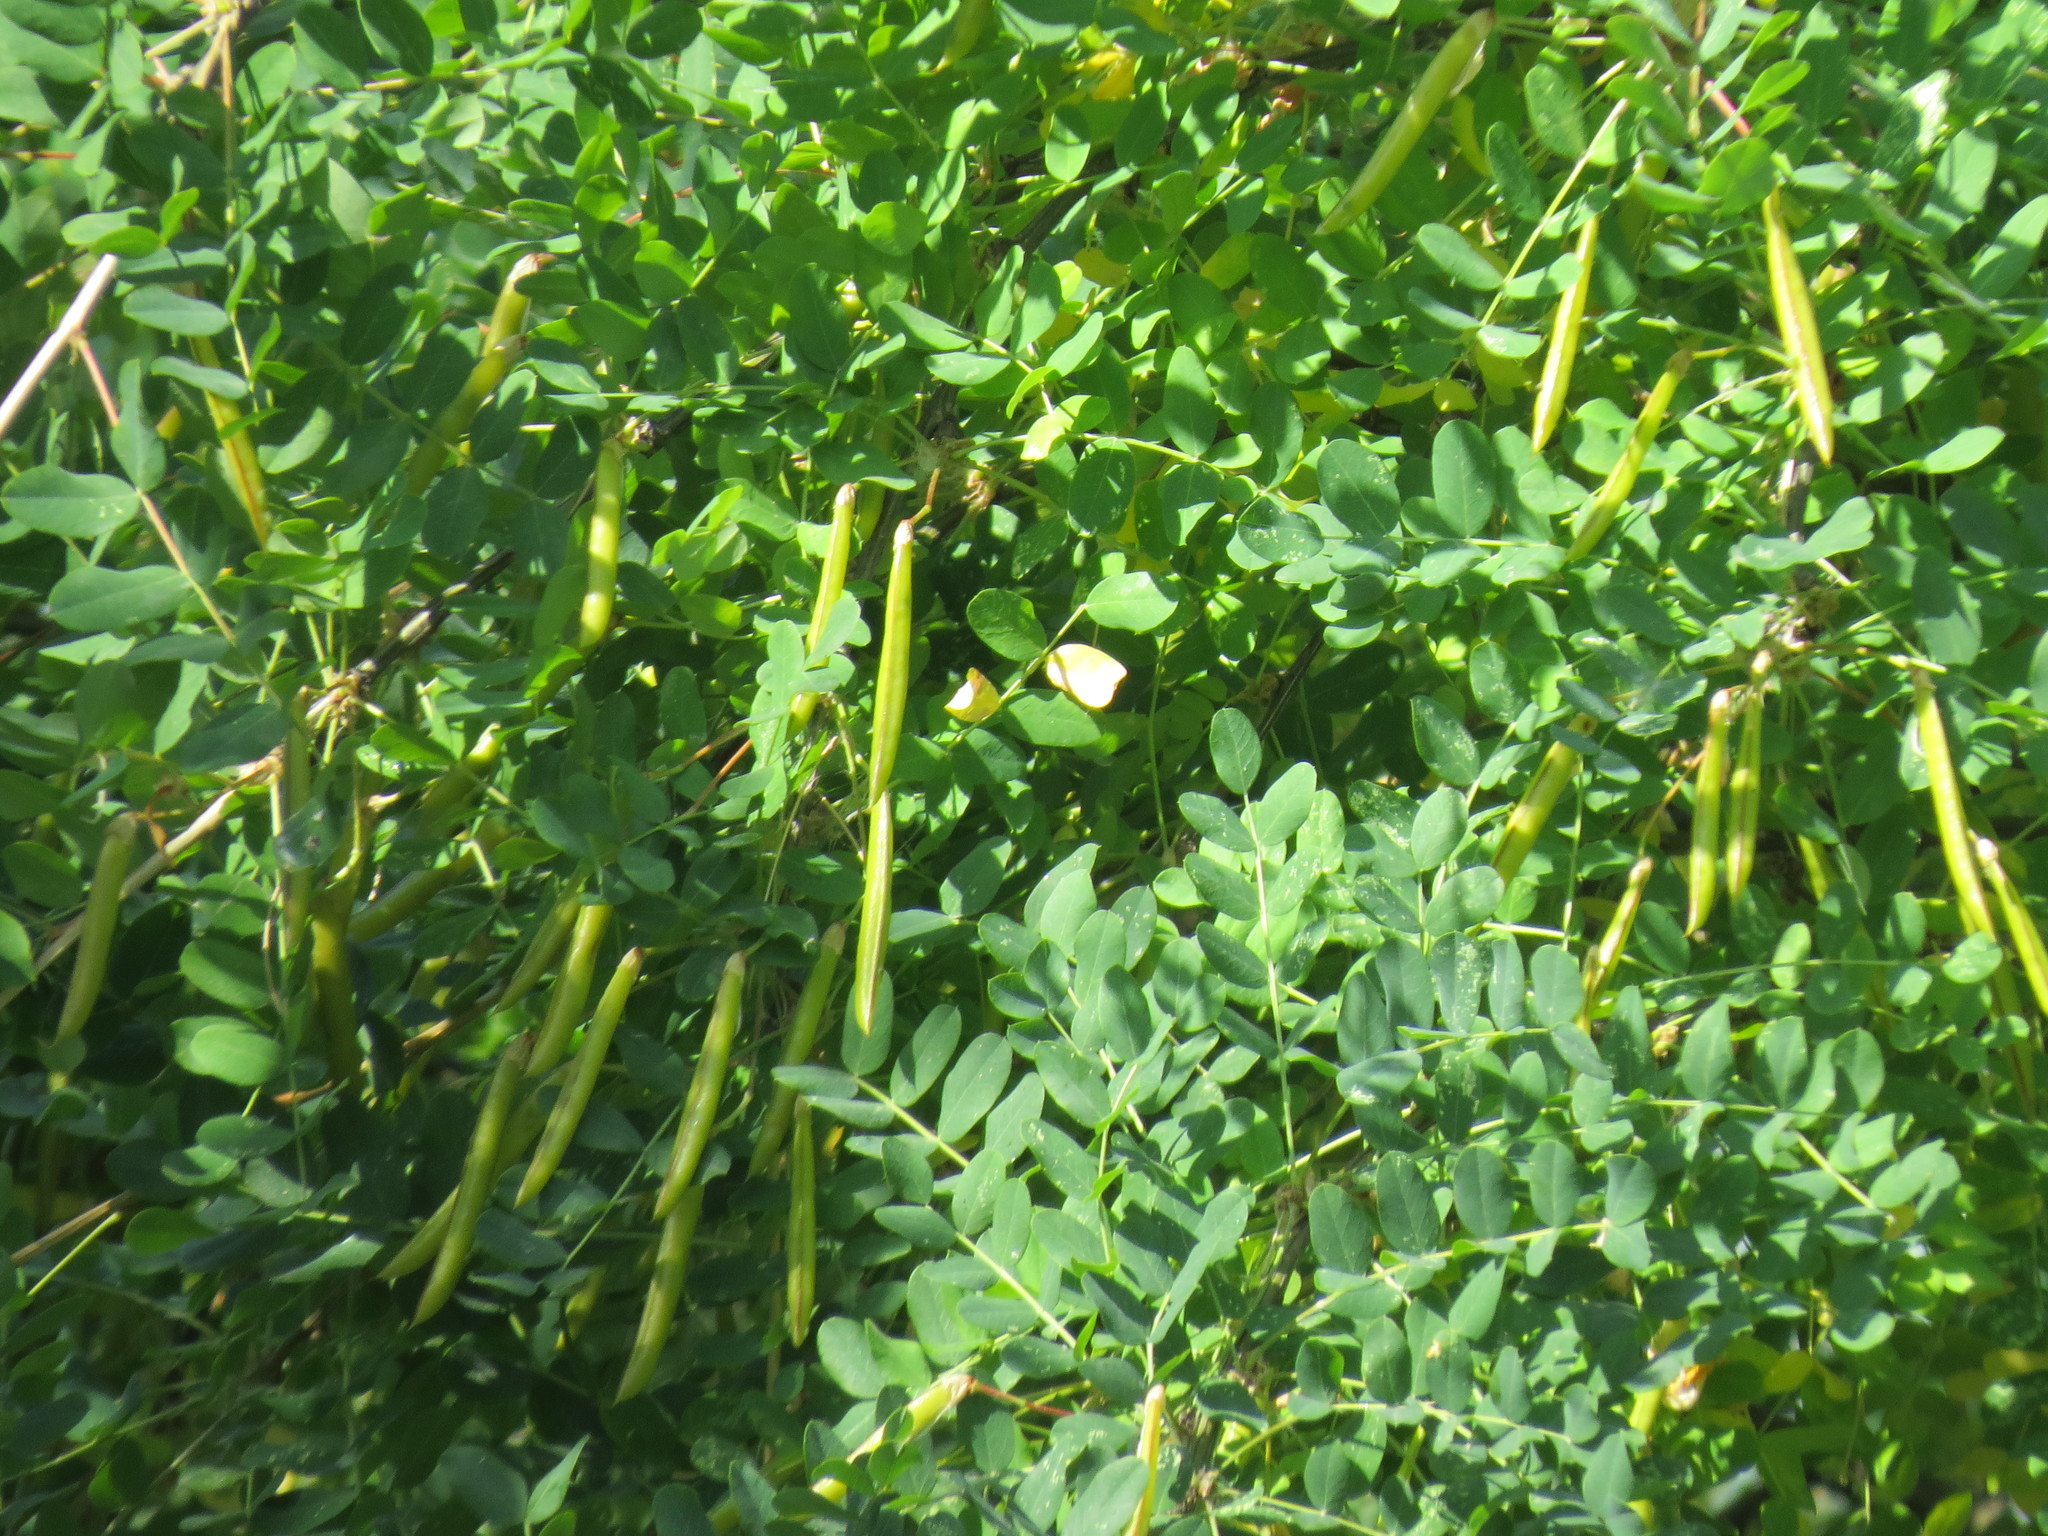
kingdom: Plantae
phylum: Tracheophyta
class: Magnoliopsida
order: Fabales
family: Fabaceae
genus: Caragana
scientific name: Caragana arborescens
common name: Siberian peashrub
